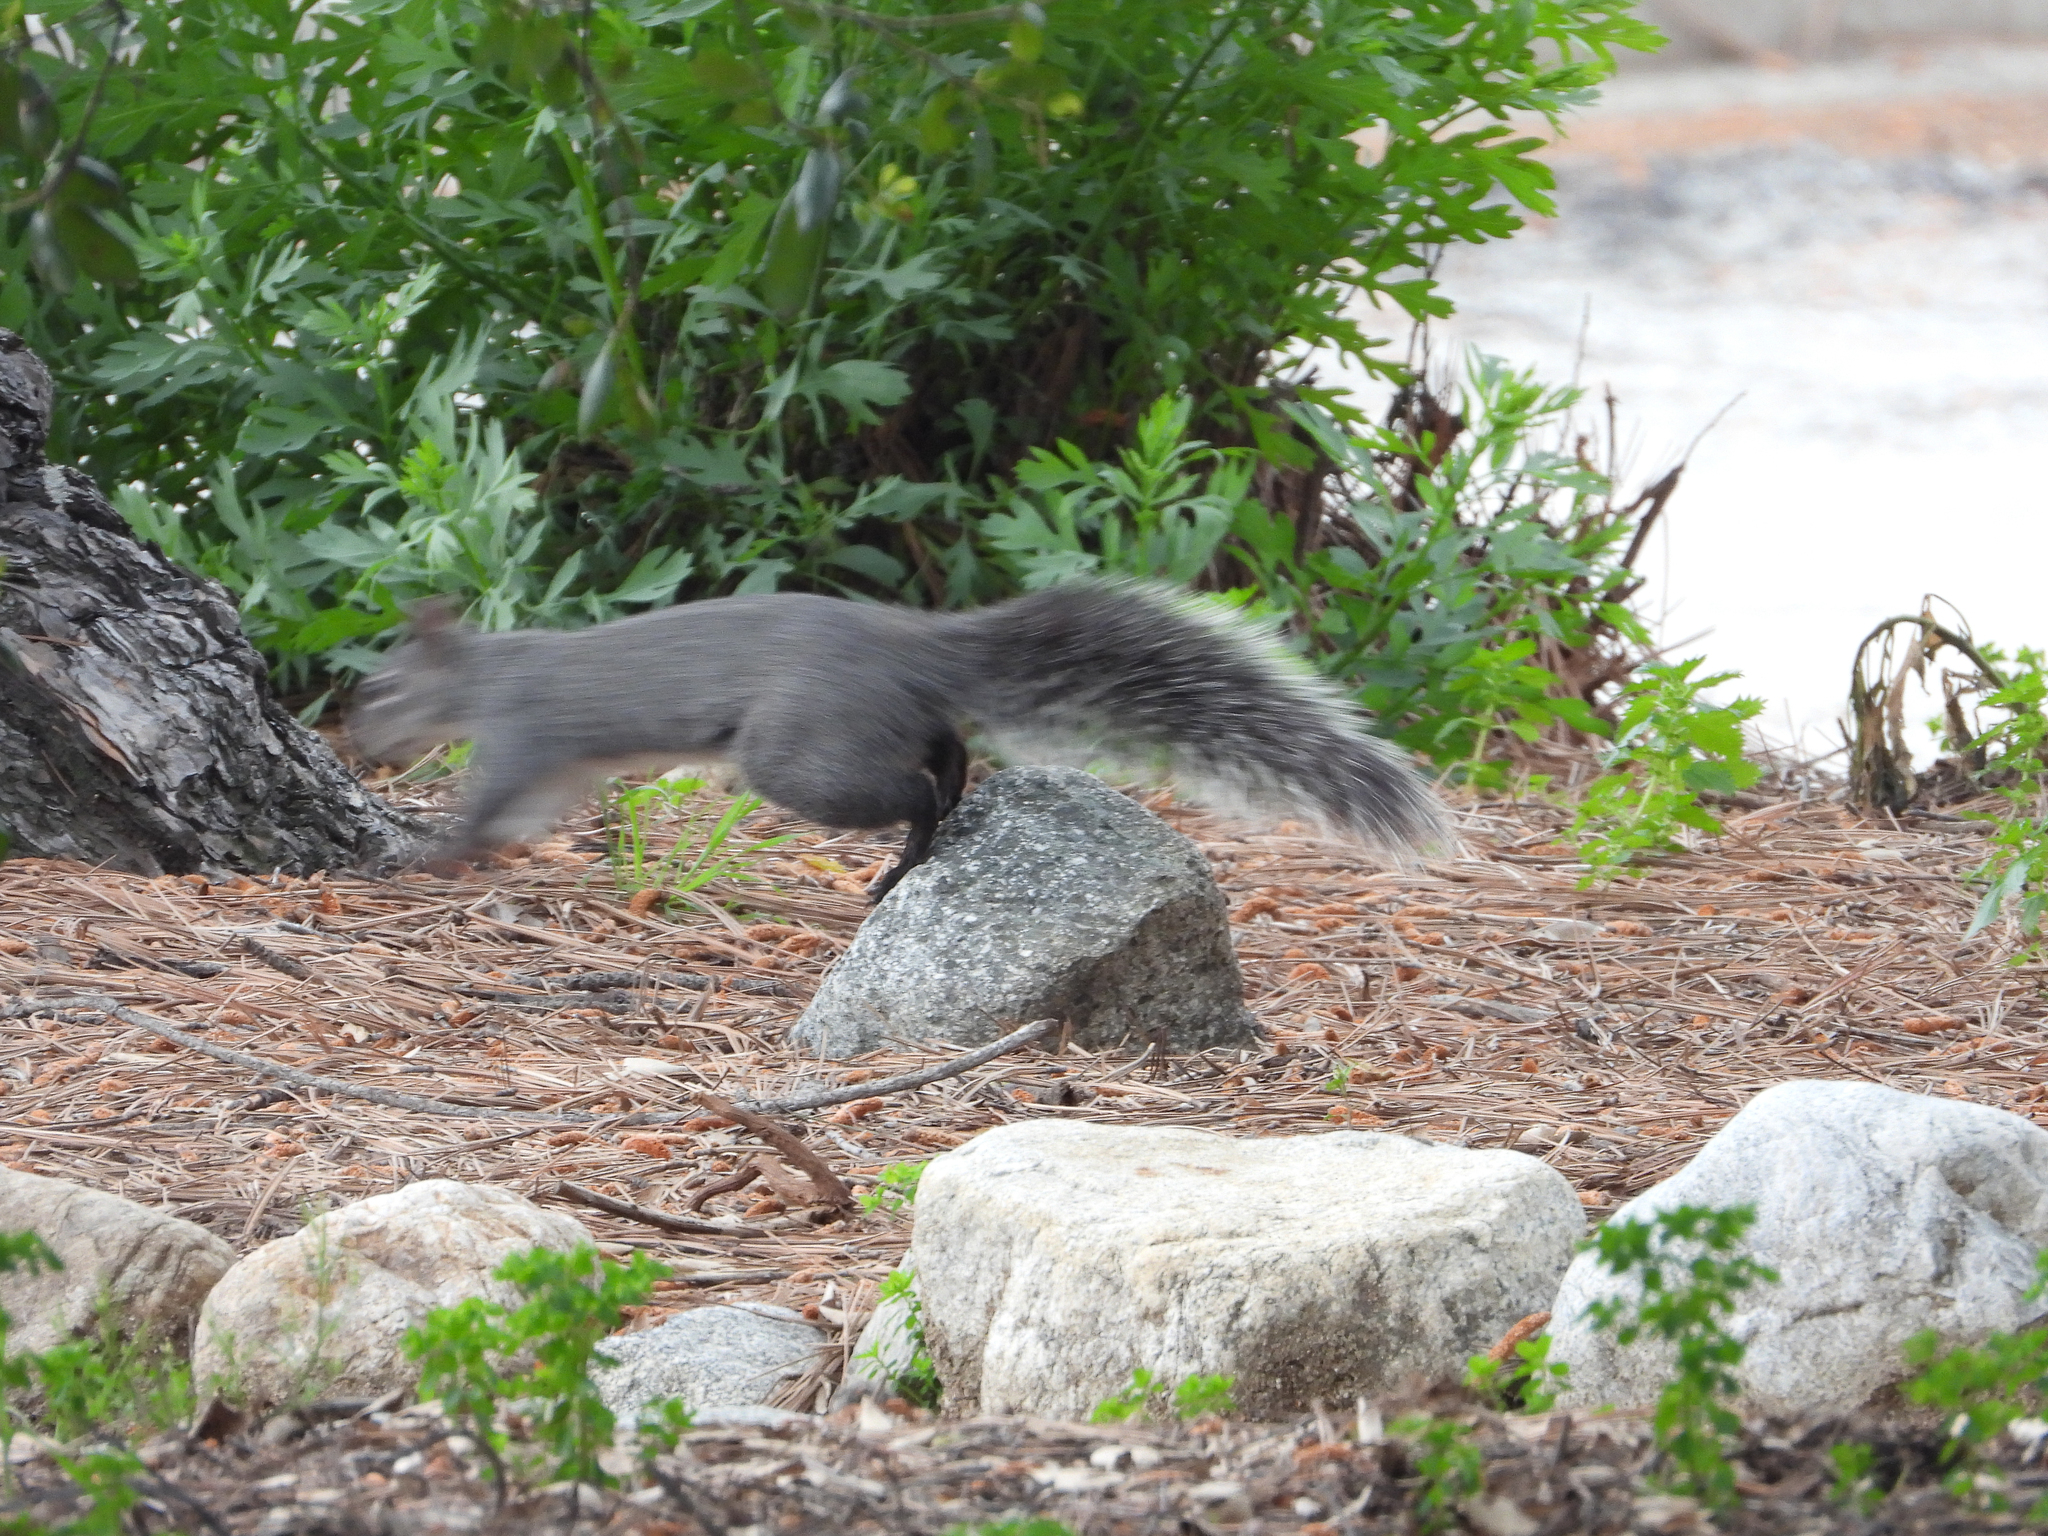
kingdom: Animalia
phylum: Chordata
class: Mammalia
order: Rodentia
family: Sciuridae
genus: Sciurus
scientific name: Sciurus griseus
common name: Western gray squirrel
